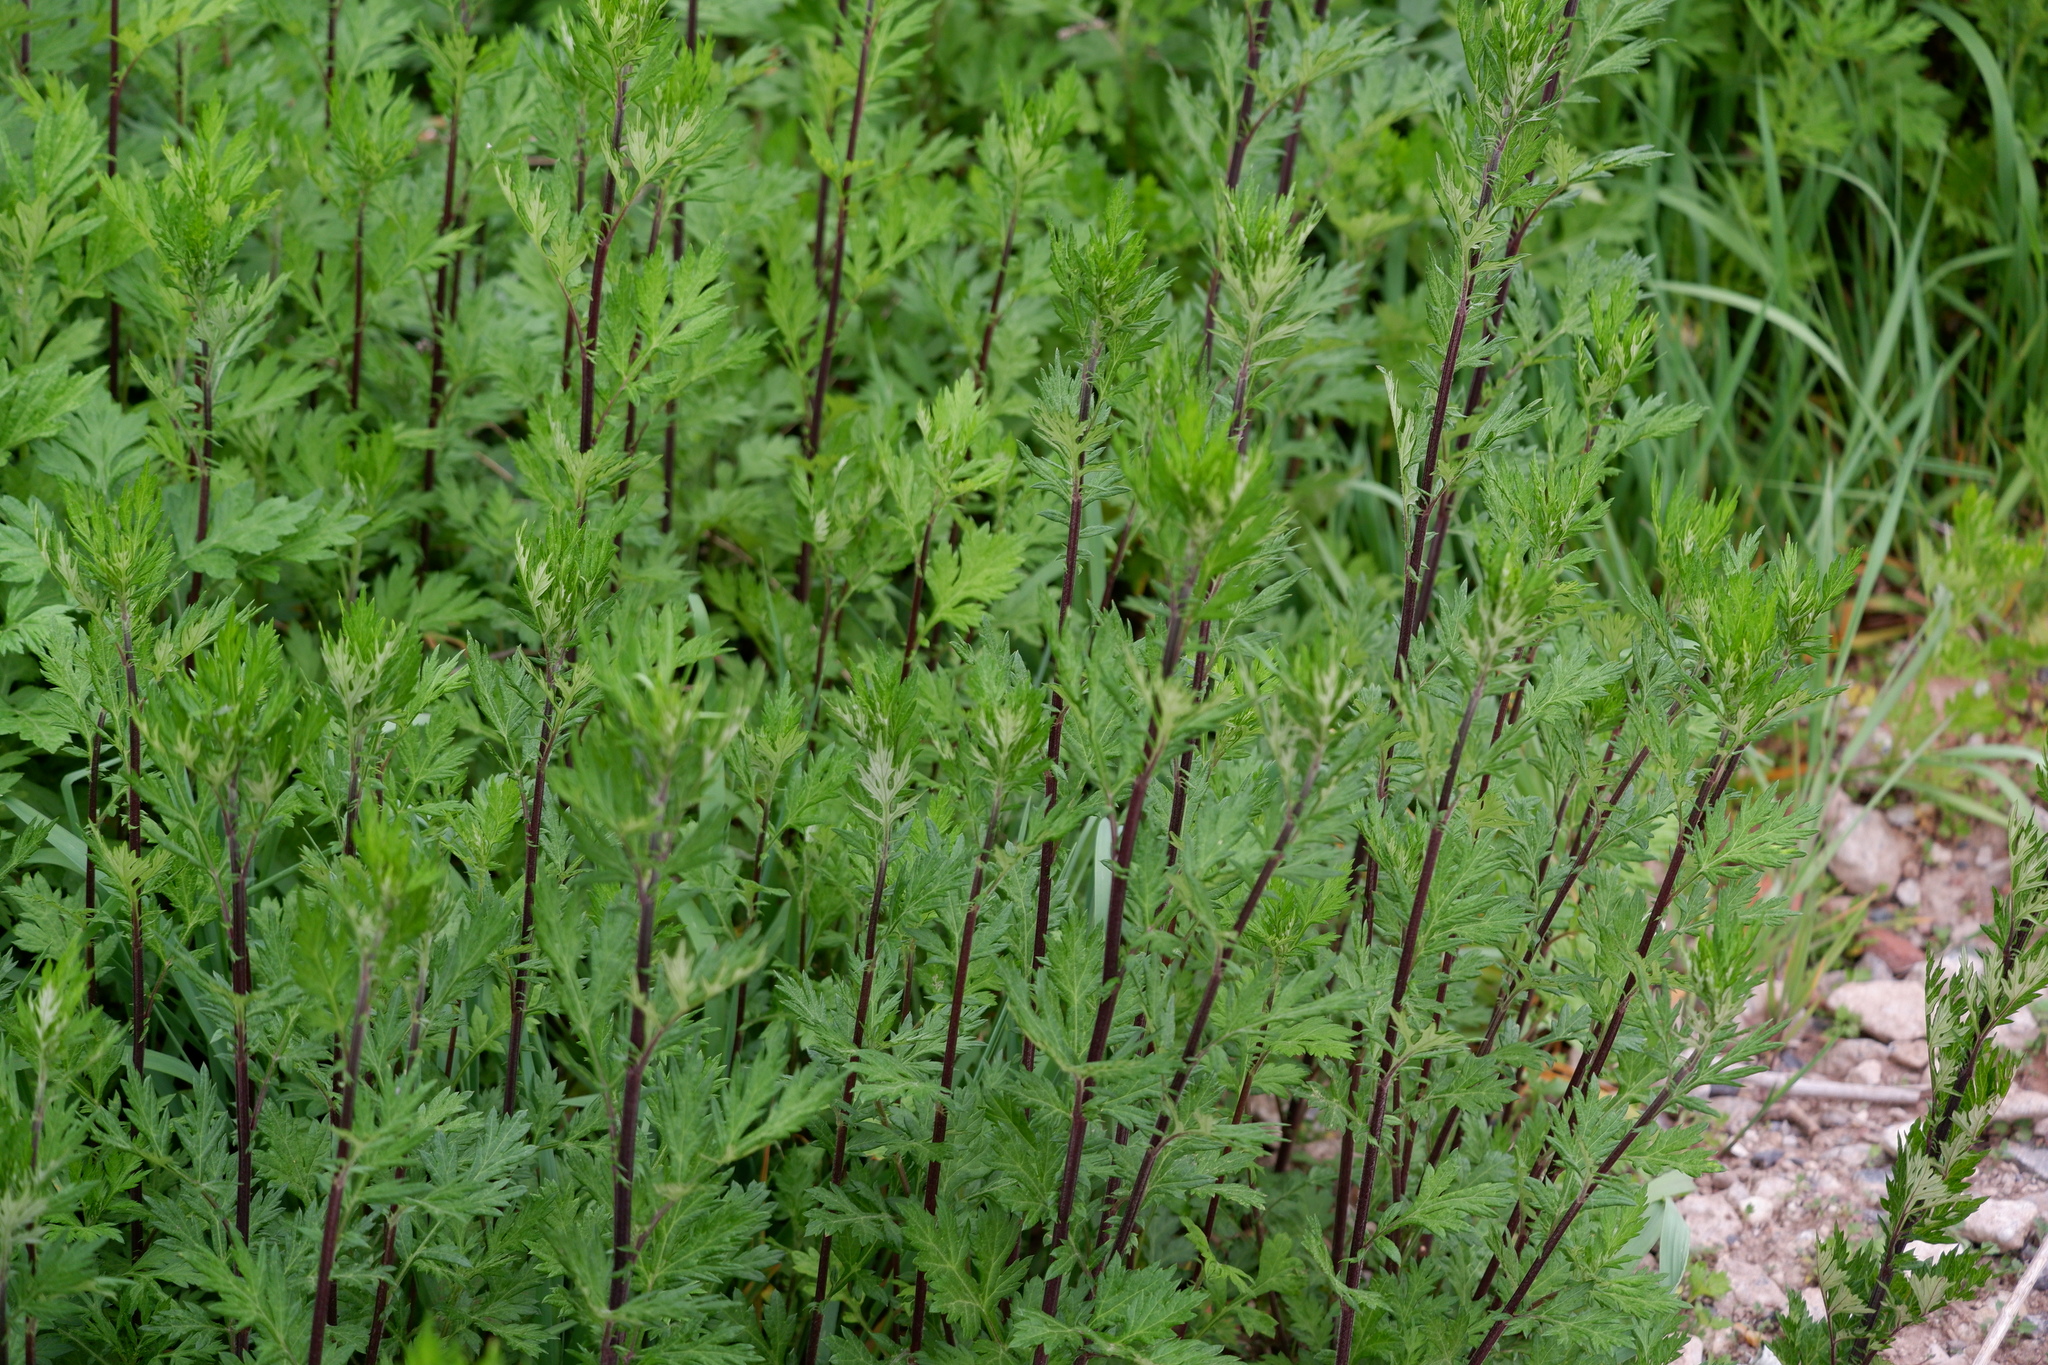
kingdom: Plantae
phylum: Tracheophyta
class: Magnoliopsida
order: Asterales
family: Asteraceae
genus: Artemisia
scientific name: Artemisia vulgaris
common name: Mugwort
